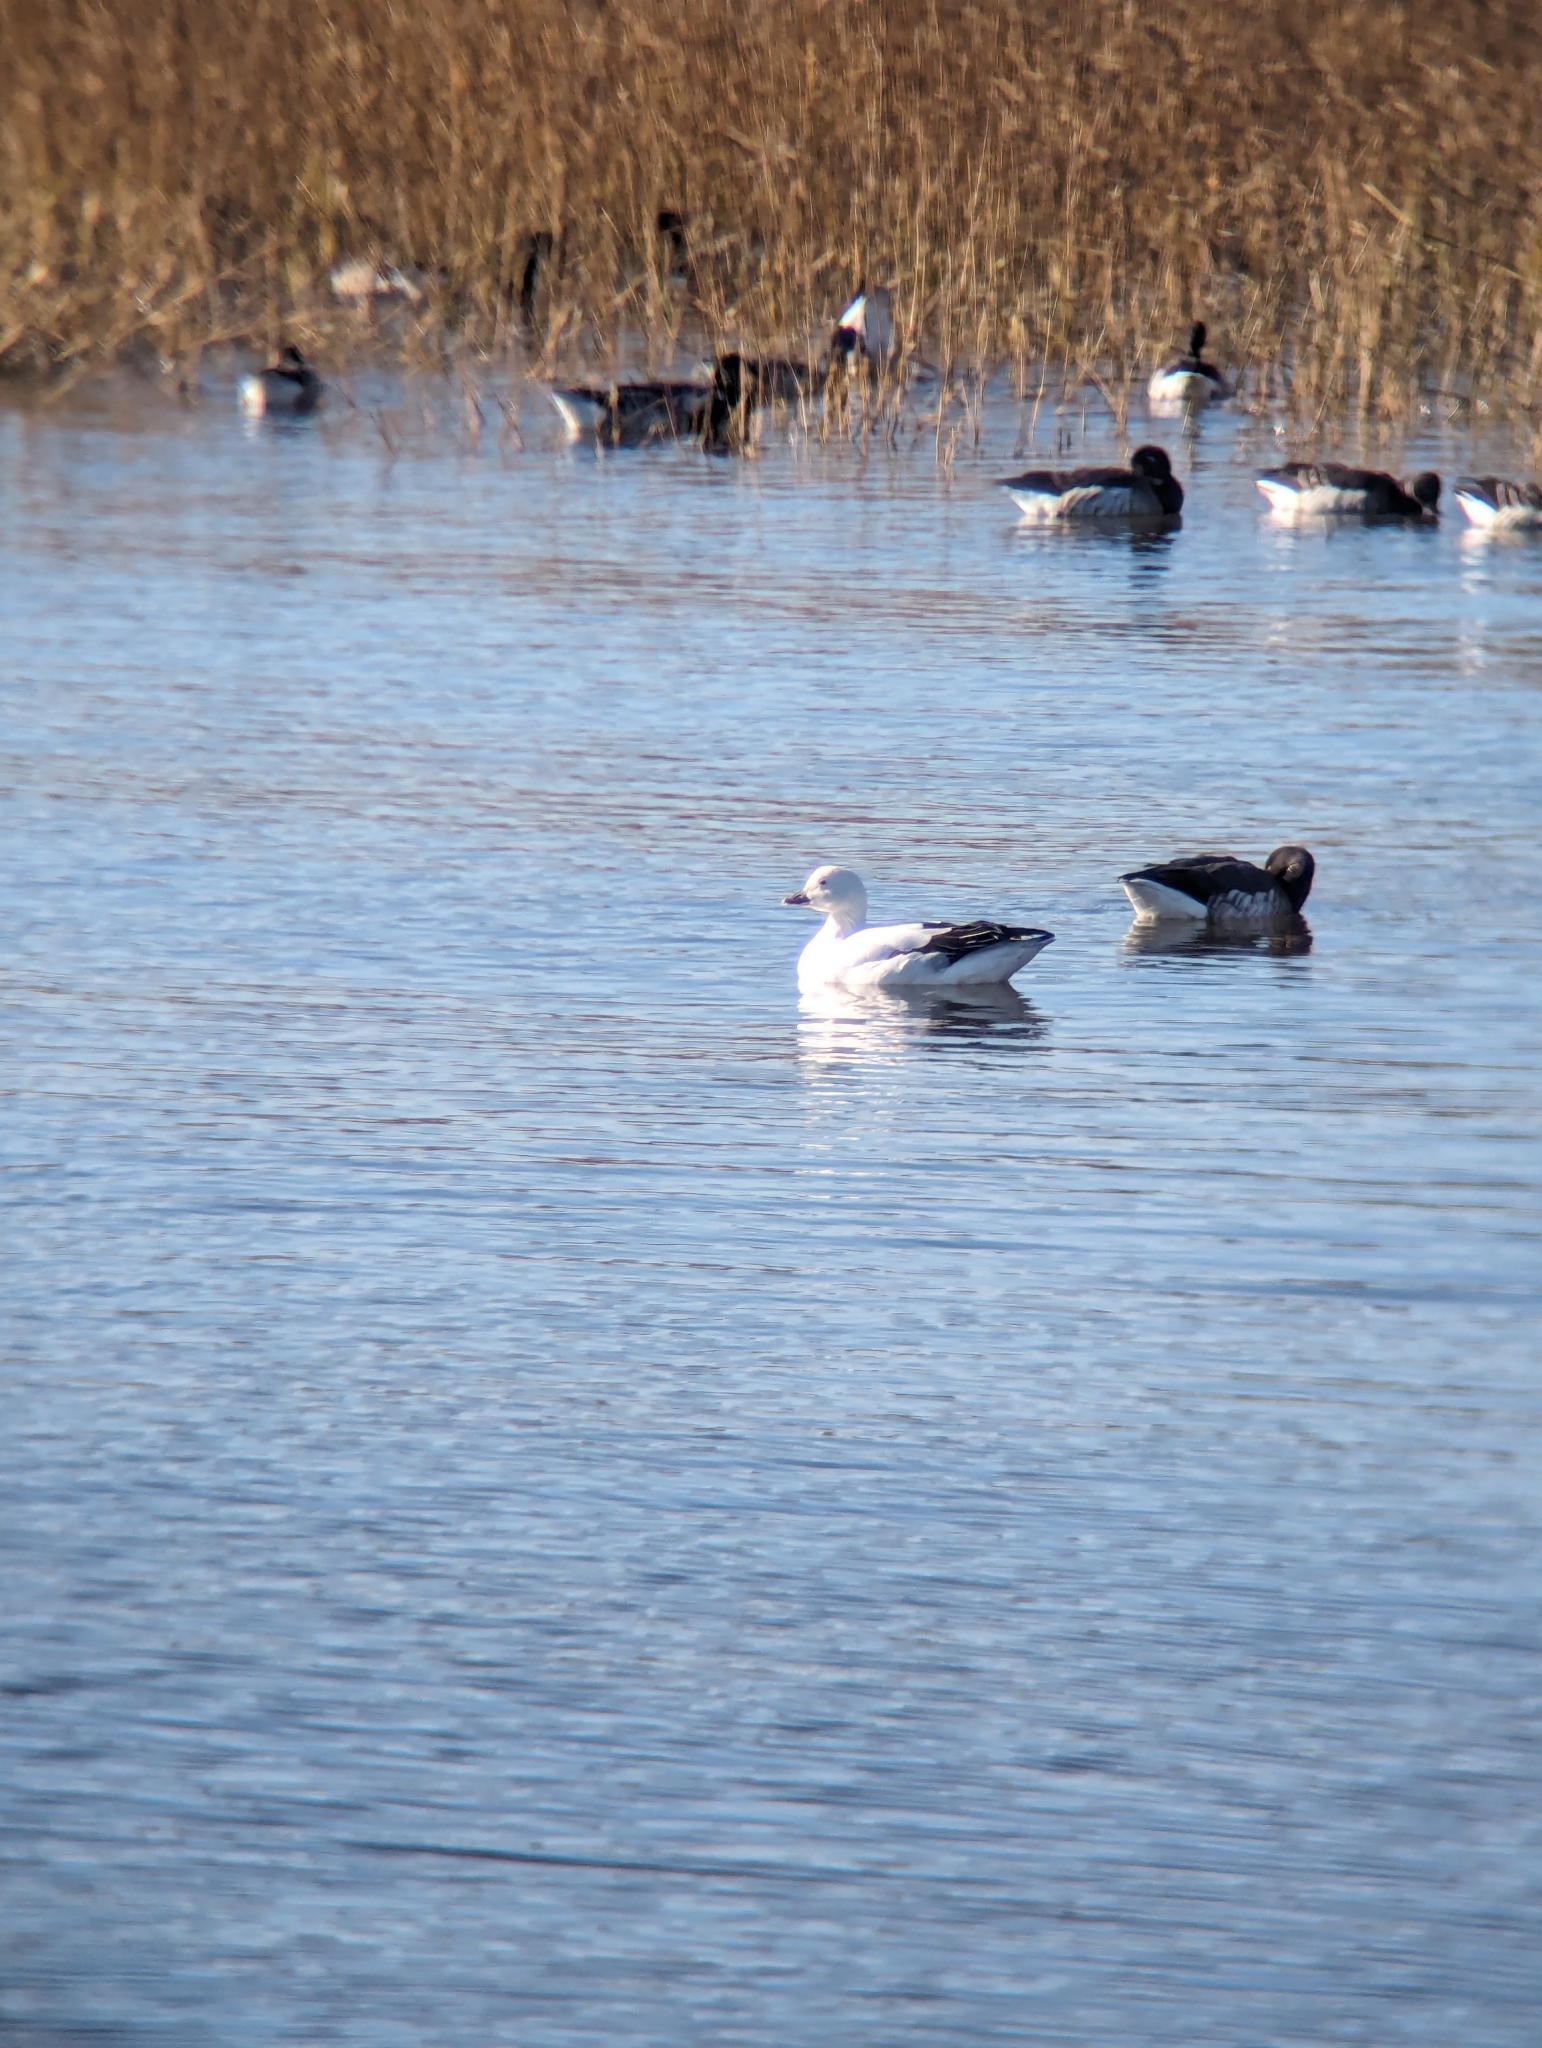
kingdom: Animalia
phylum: Chordata
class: Aves
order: Anseriformes
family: Anatidae
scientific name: Anatidae
